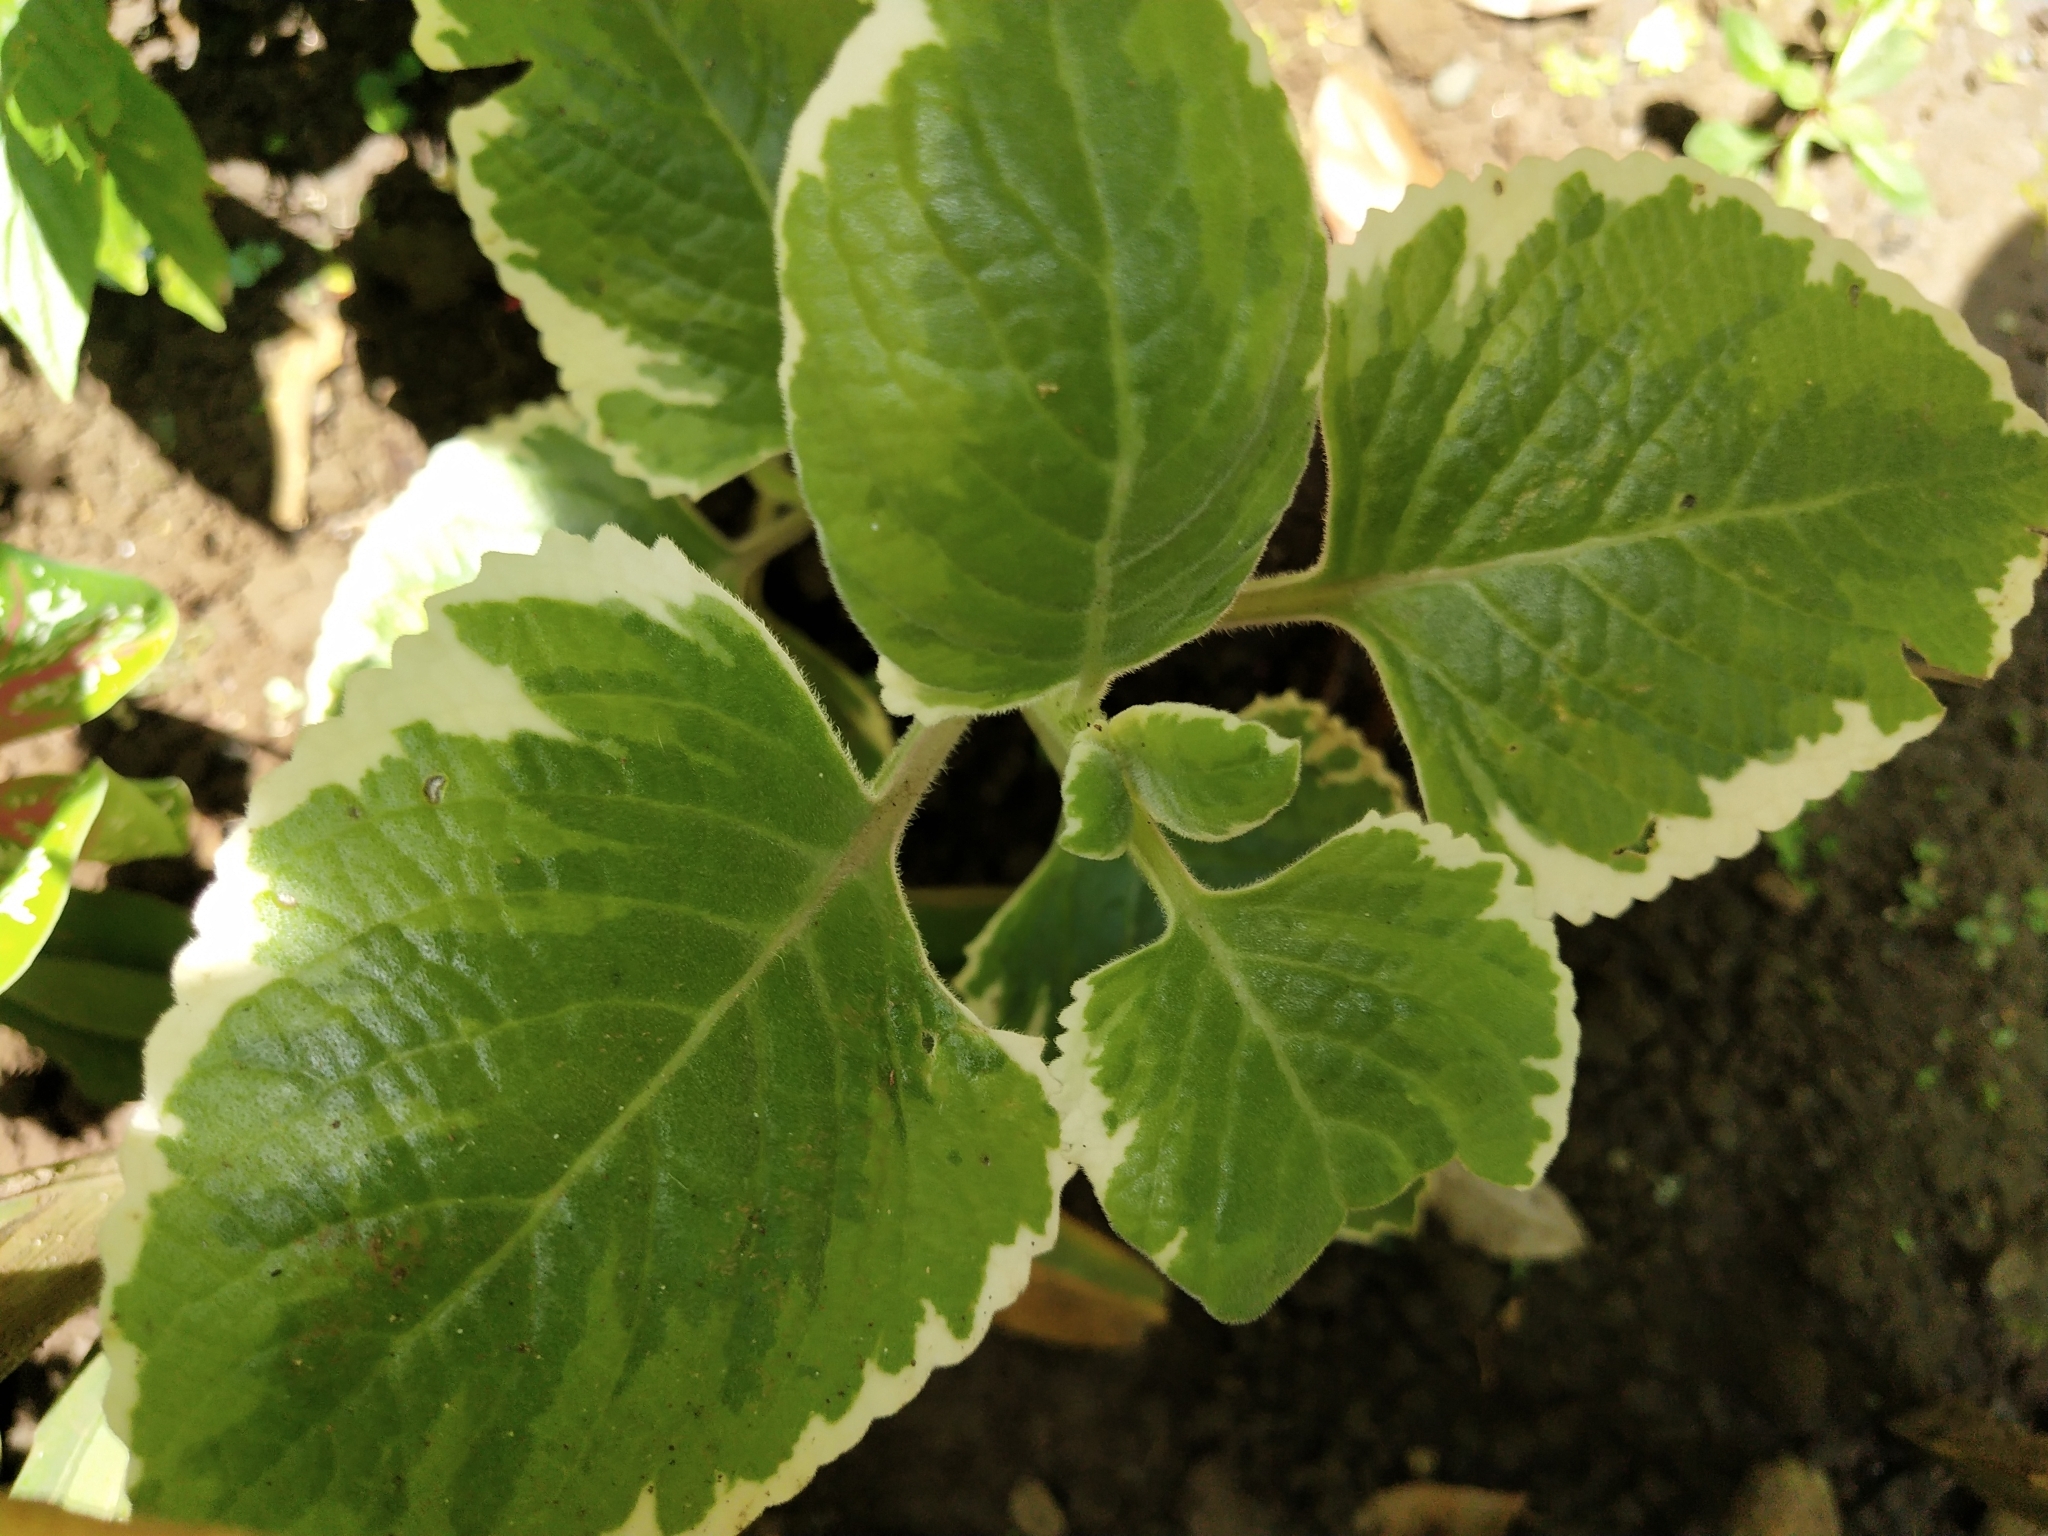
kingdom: Plantae
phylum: Tracheophyta
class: Magnoliopsida
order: Lamiales
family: Lamiaceae
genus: Coleus
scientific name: Coleus amboinicus
